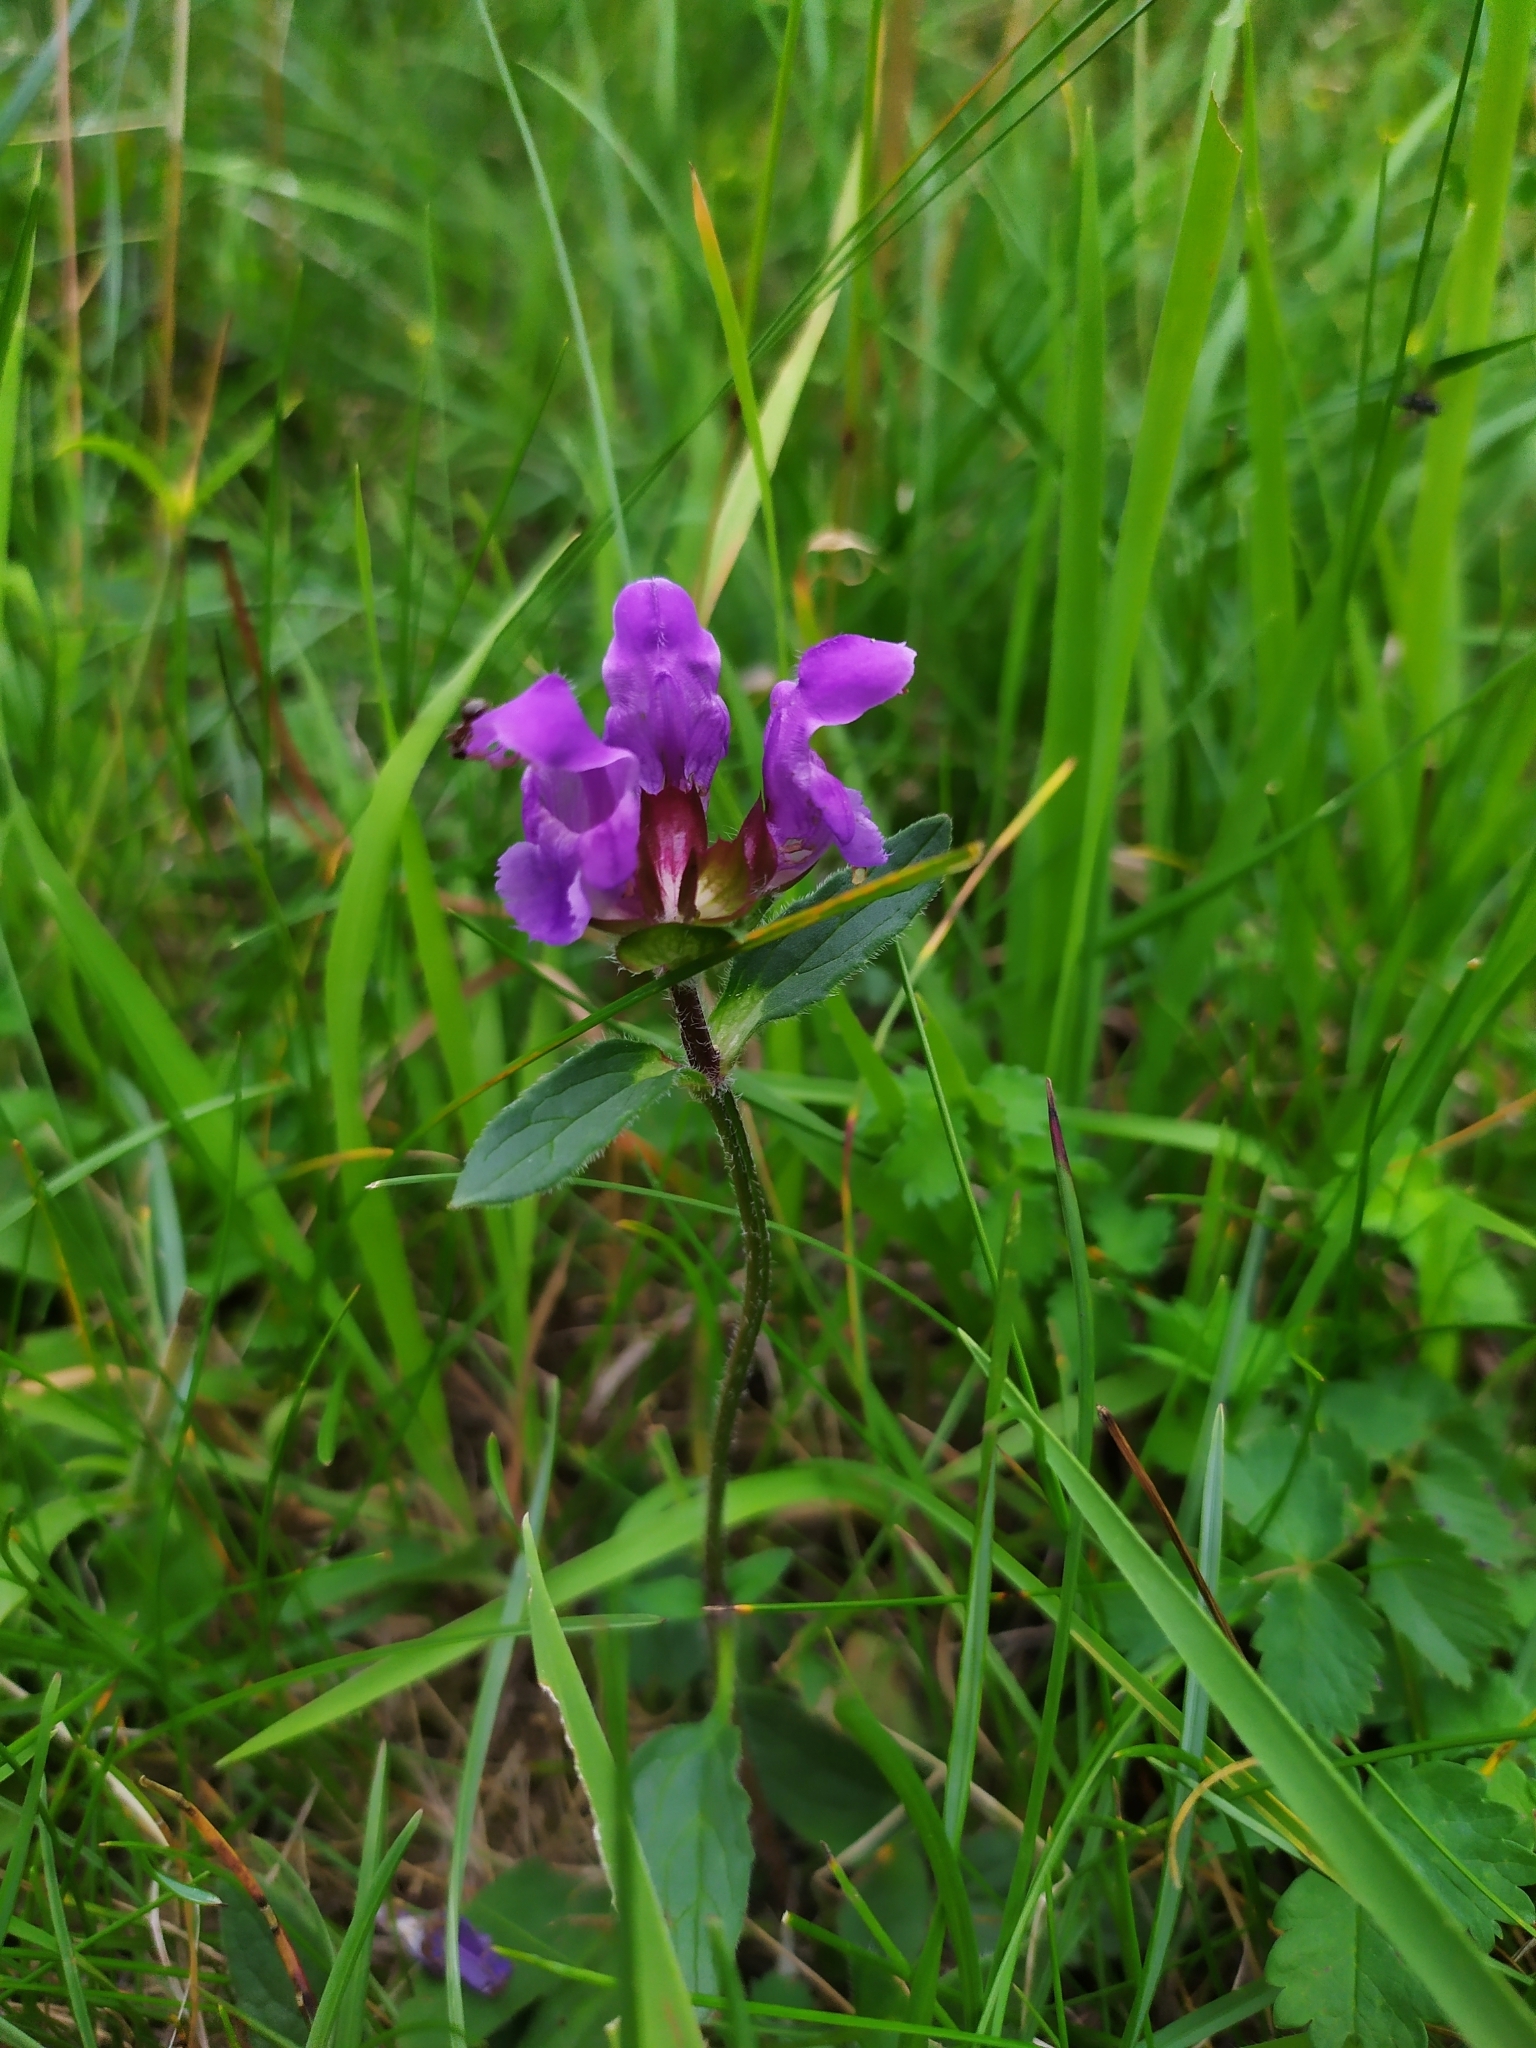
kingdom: Plantae
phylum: Tracheophyta
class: Magnoliopsida
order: Lamiales
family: Lamiaceae
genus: Prunella
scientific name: Prunella grandiflora
